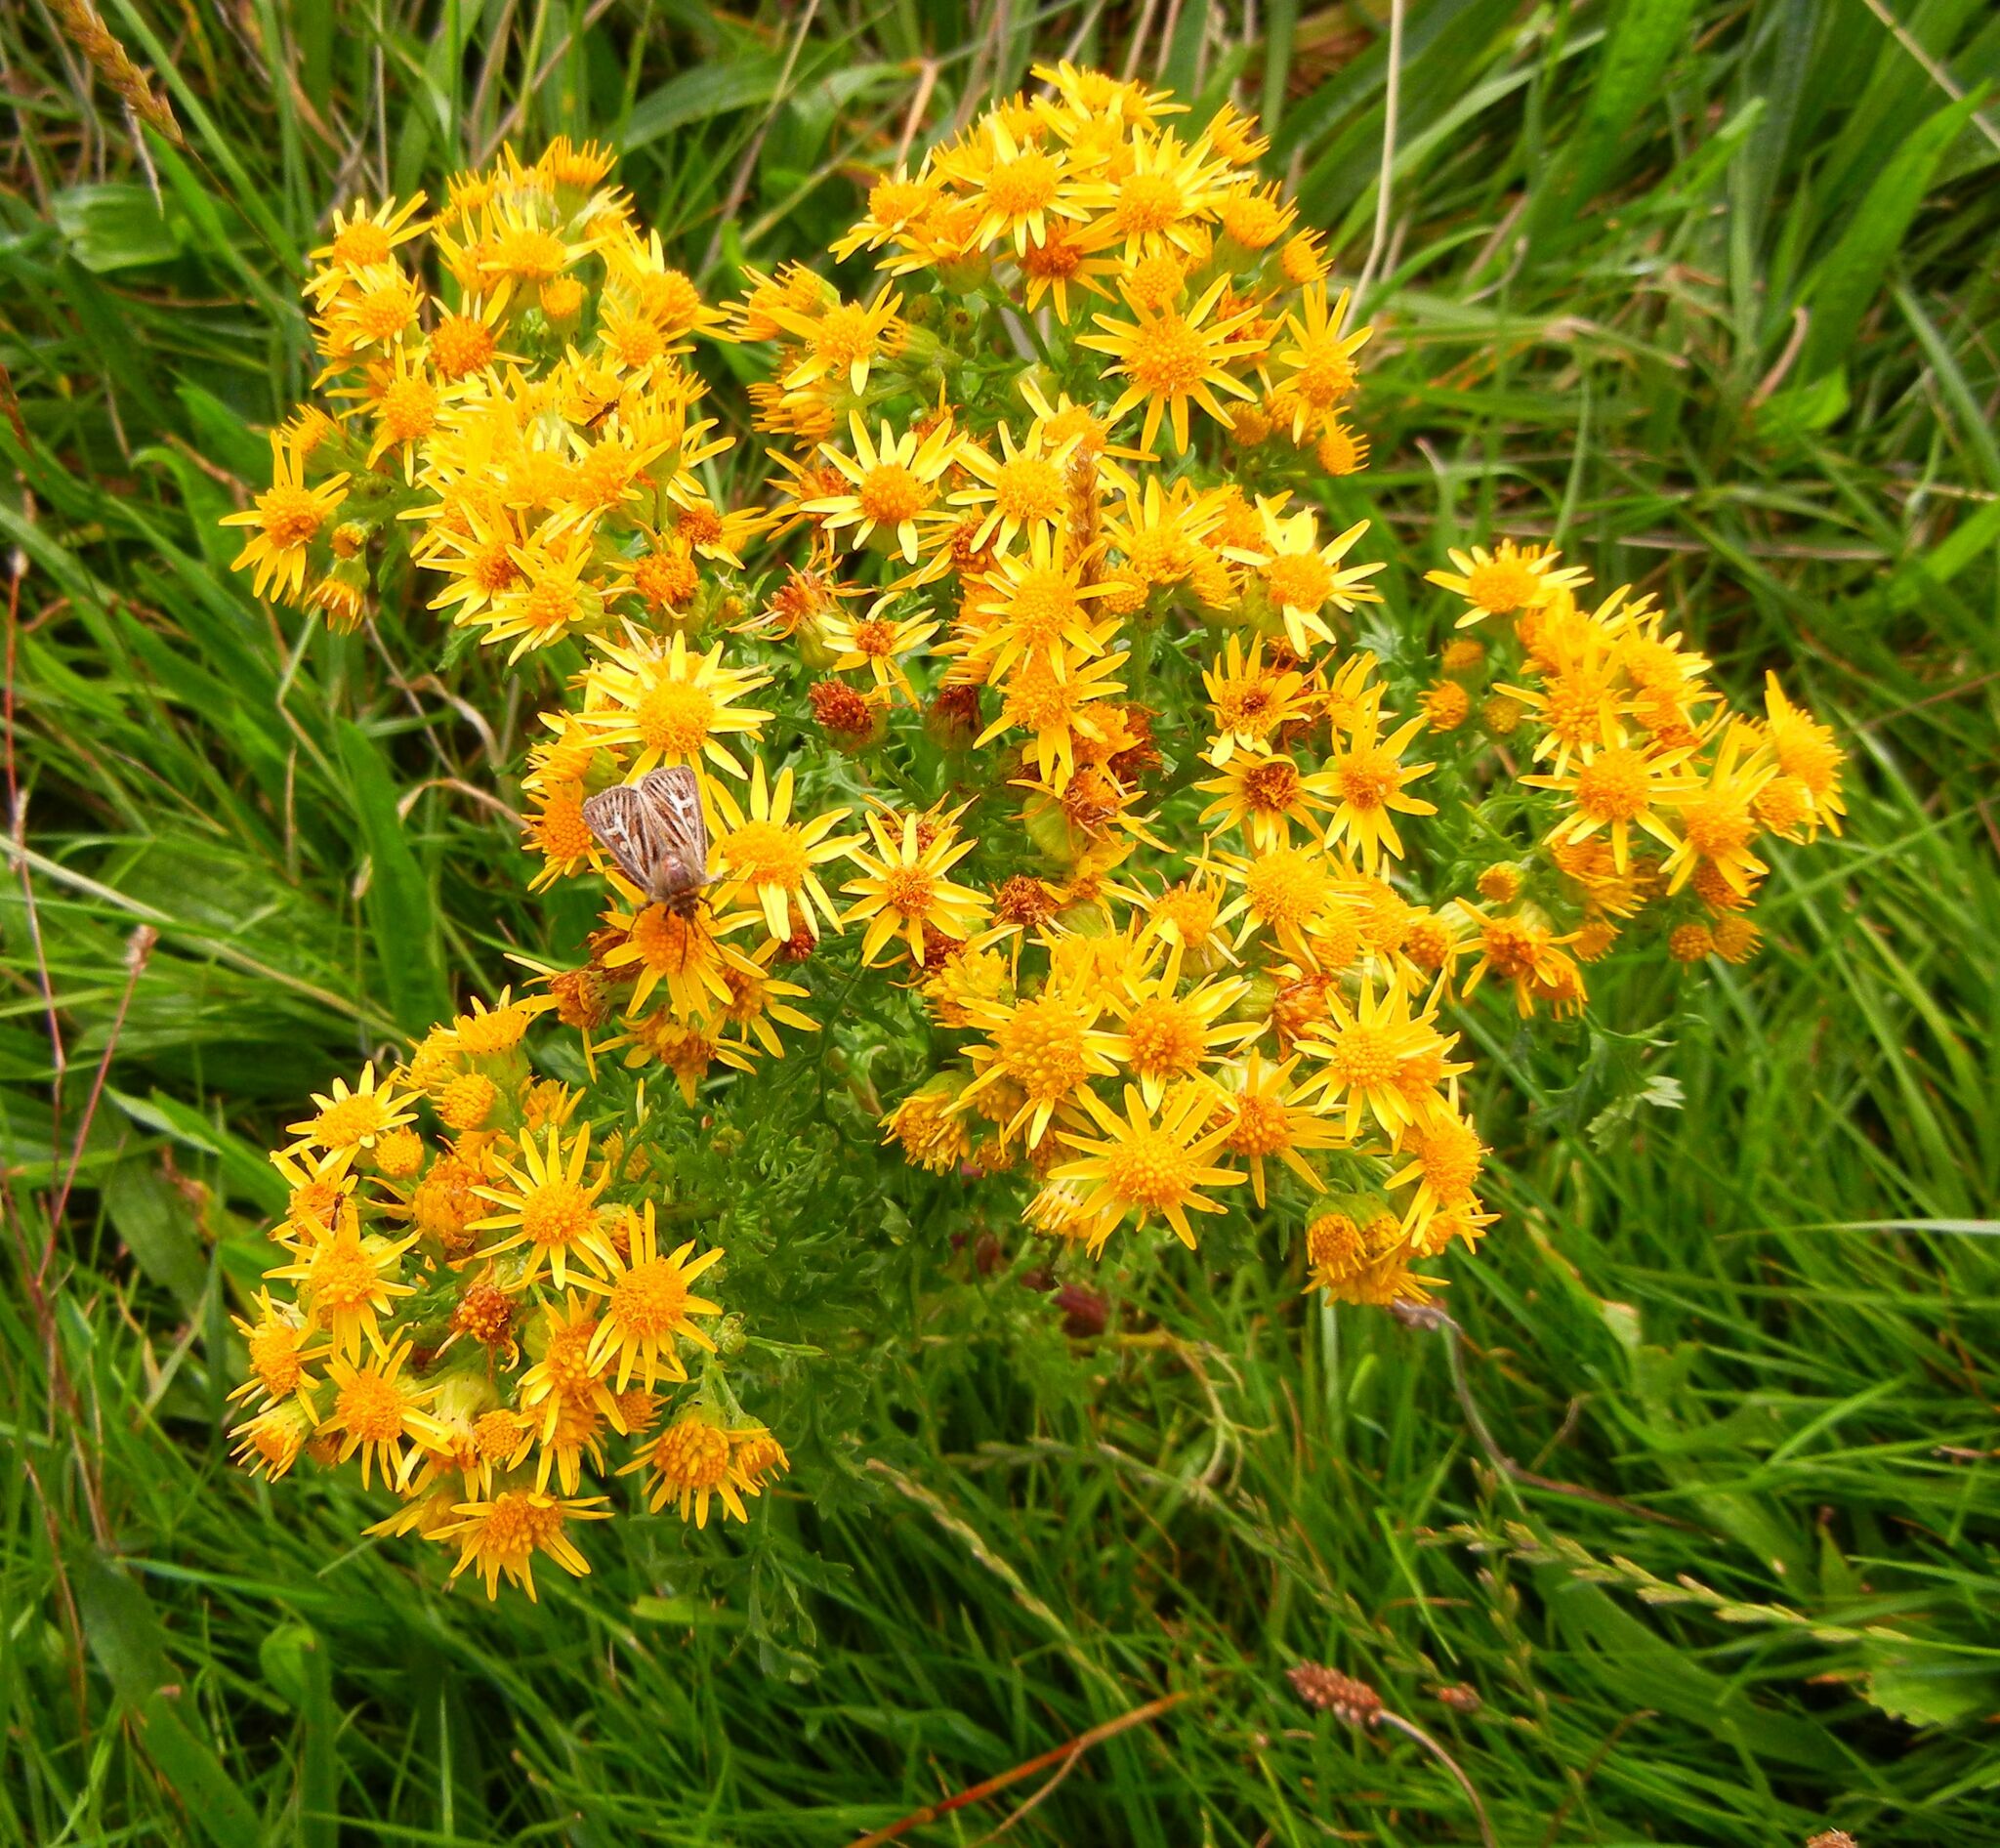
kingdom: Plantae
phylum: Tracheophyta
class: Magnoliopsida
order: Asterales
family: Asteraceae
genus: Jacobaea
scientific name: Jacobaea vulgaris
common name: Stinking willie
